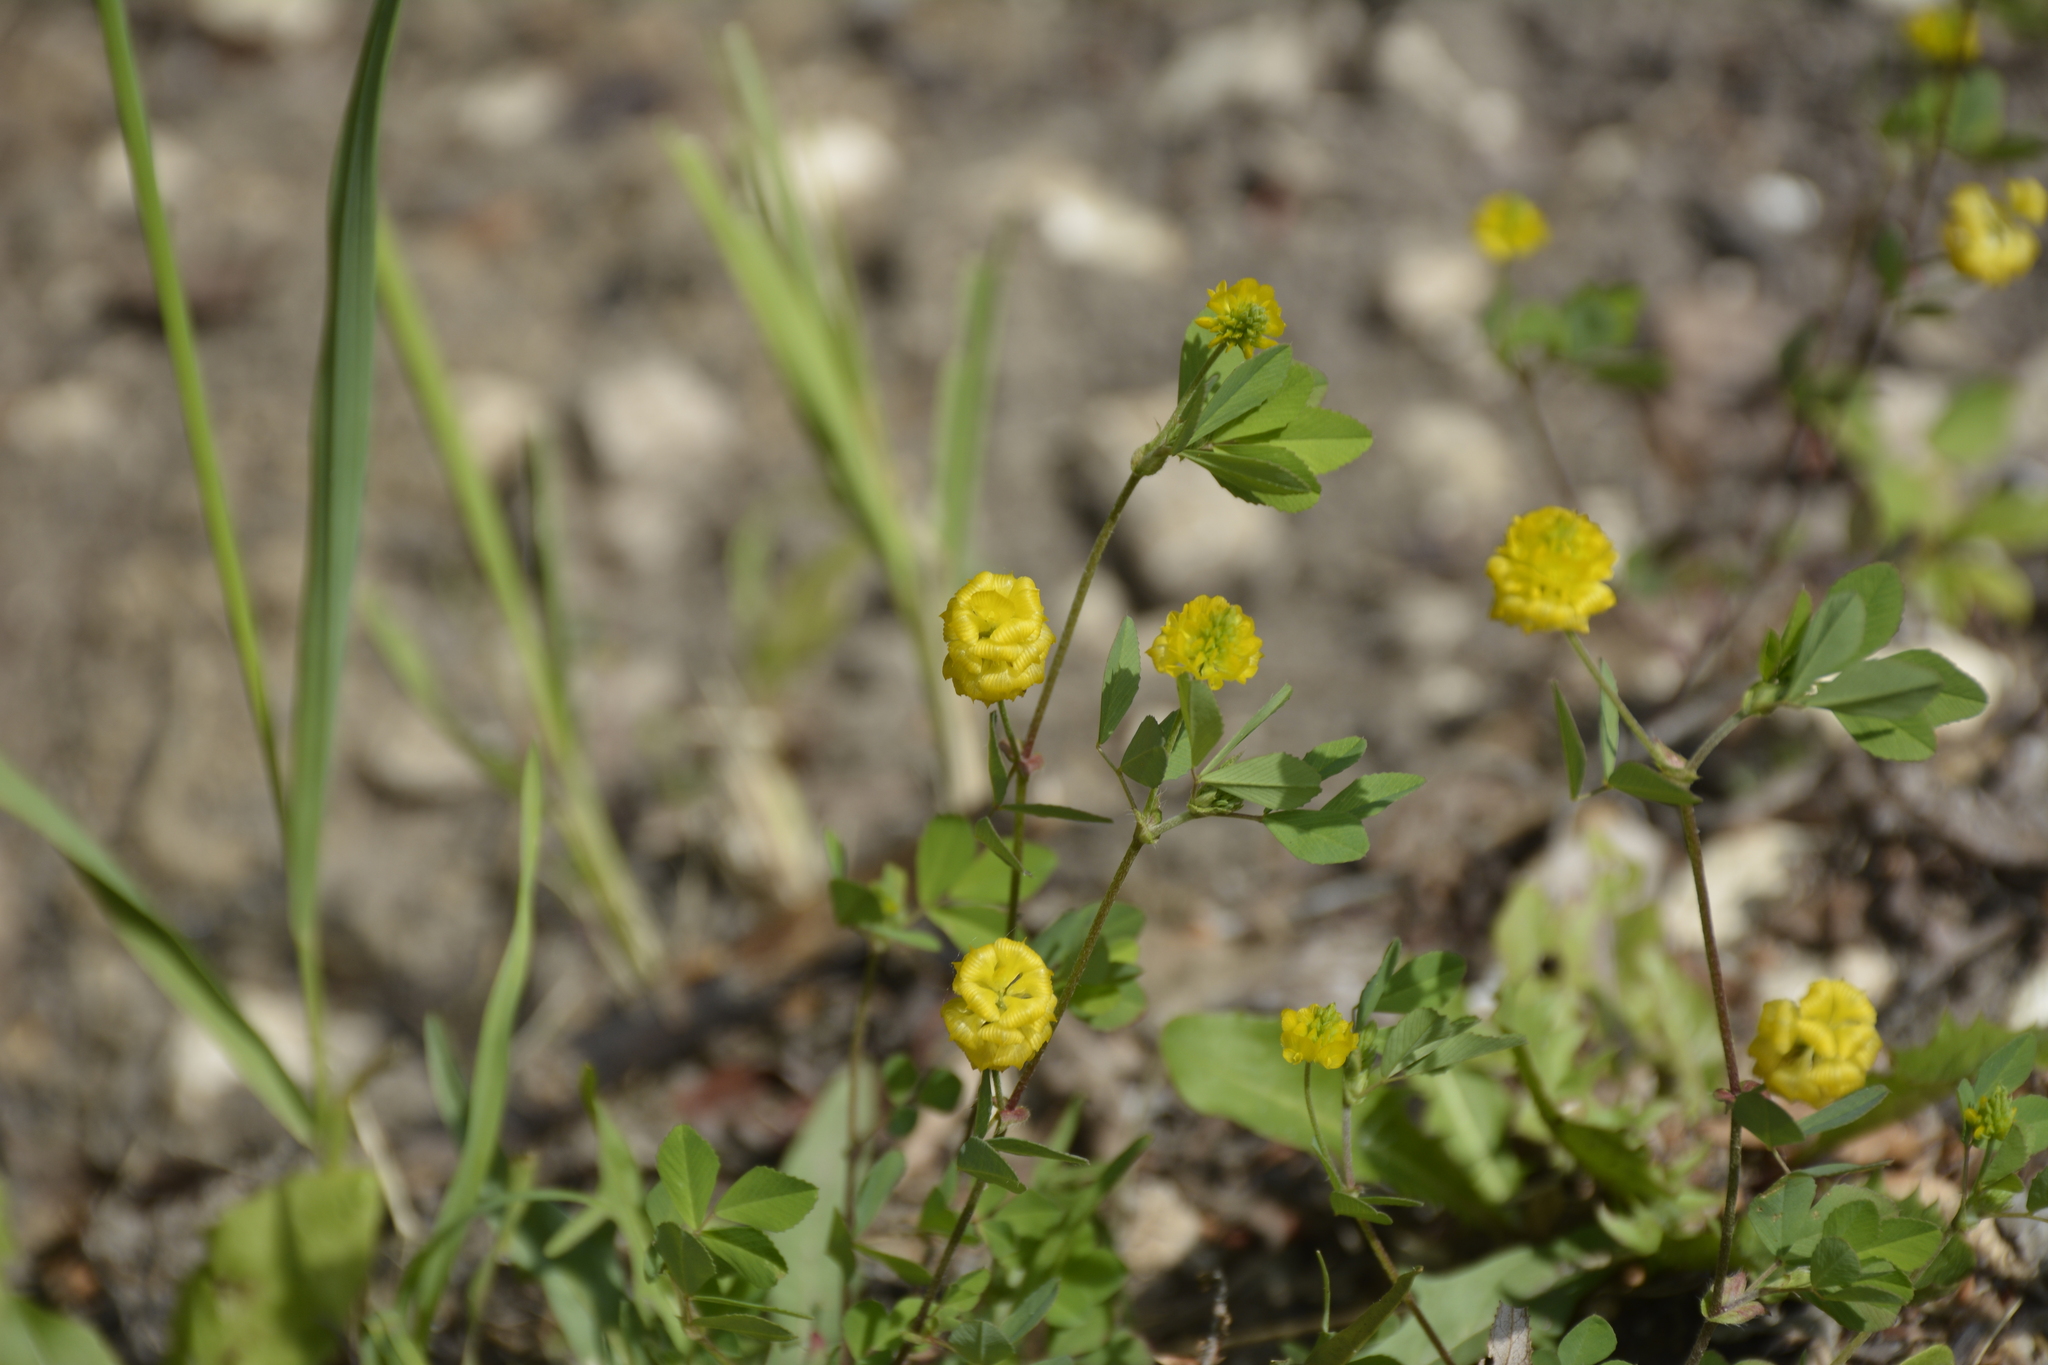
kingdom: Plantae
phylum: Tracheophyta
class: Magnoliopsida
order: Fabales
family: Fabaceae
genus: Trifolium
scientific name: Trifolium campestre
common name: Field clover
